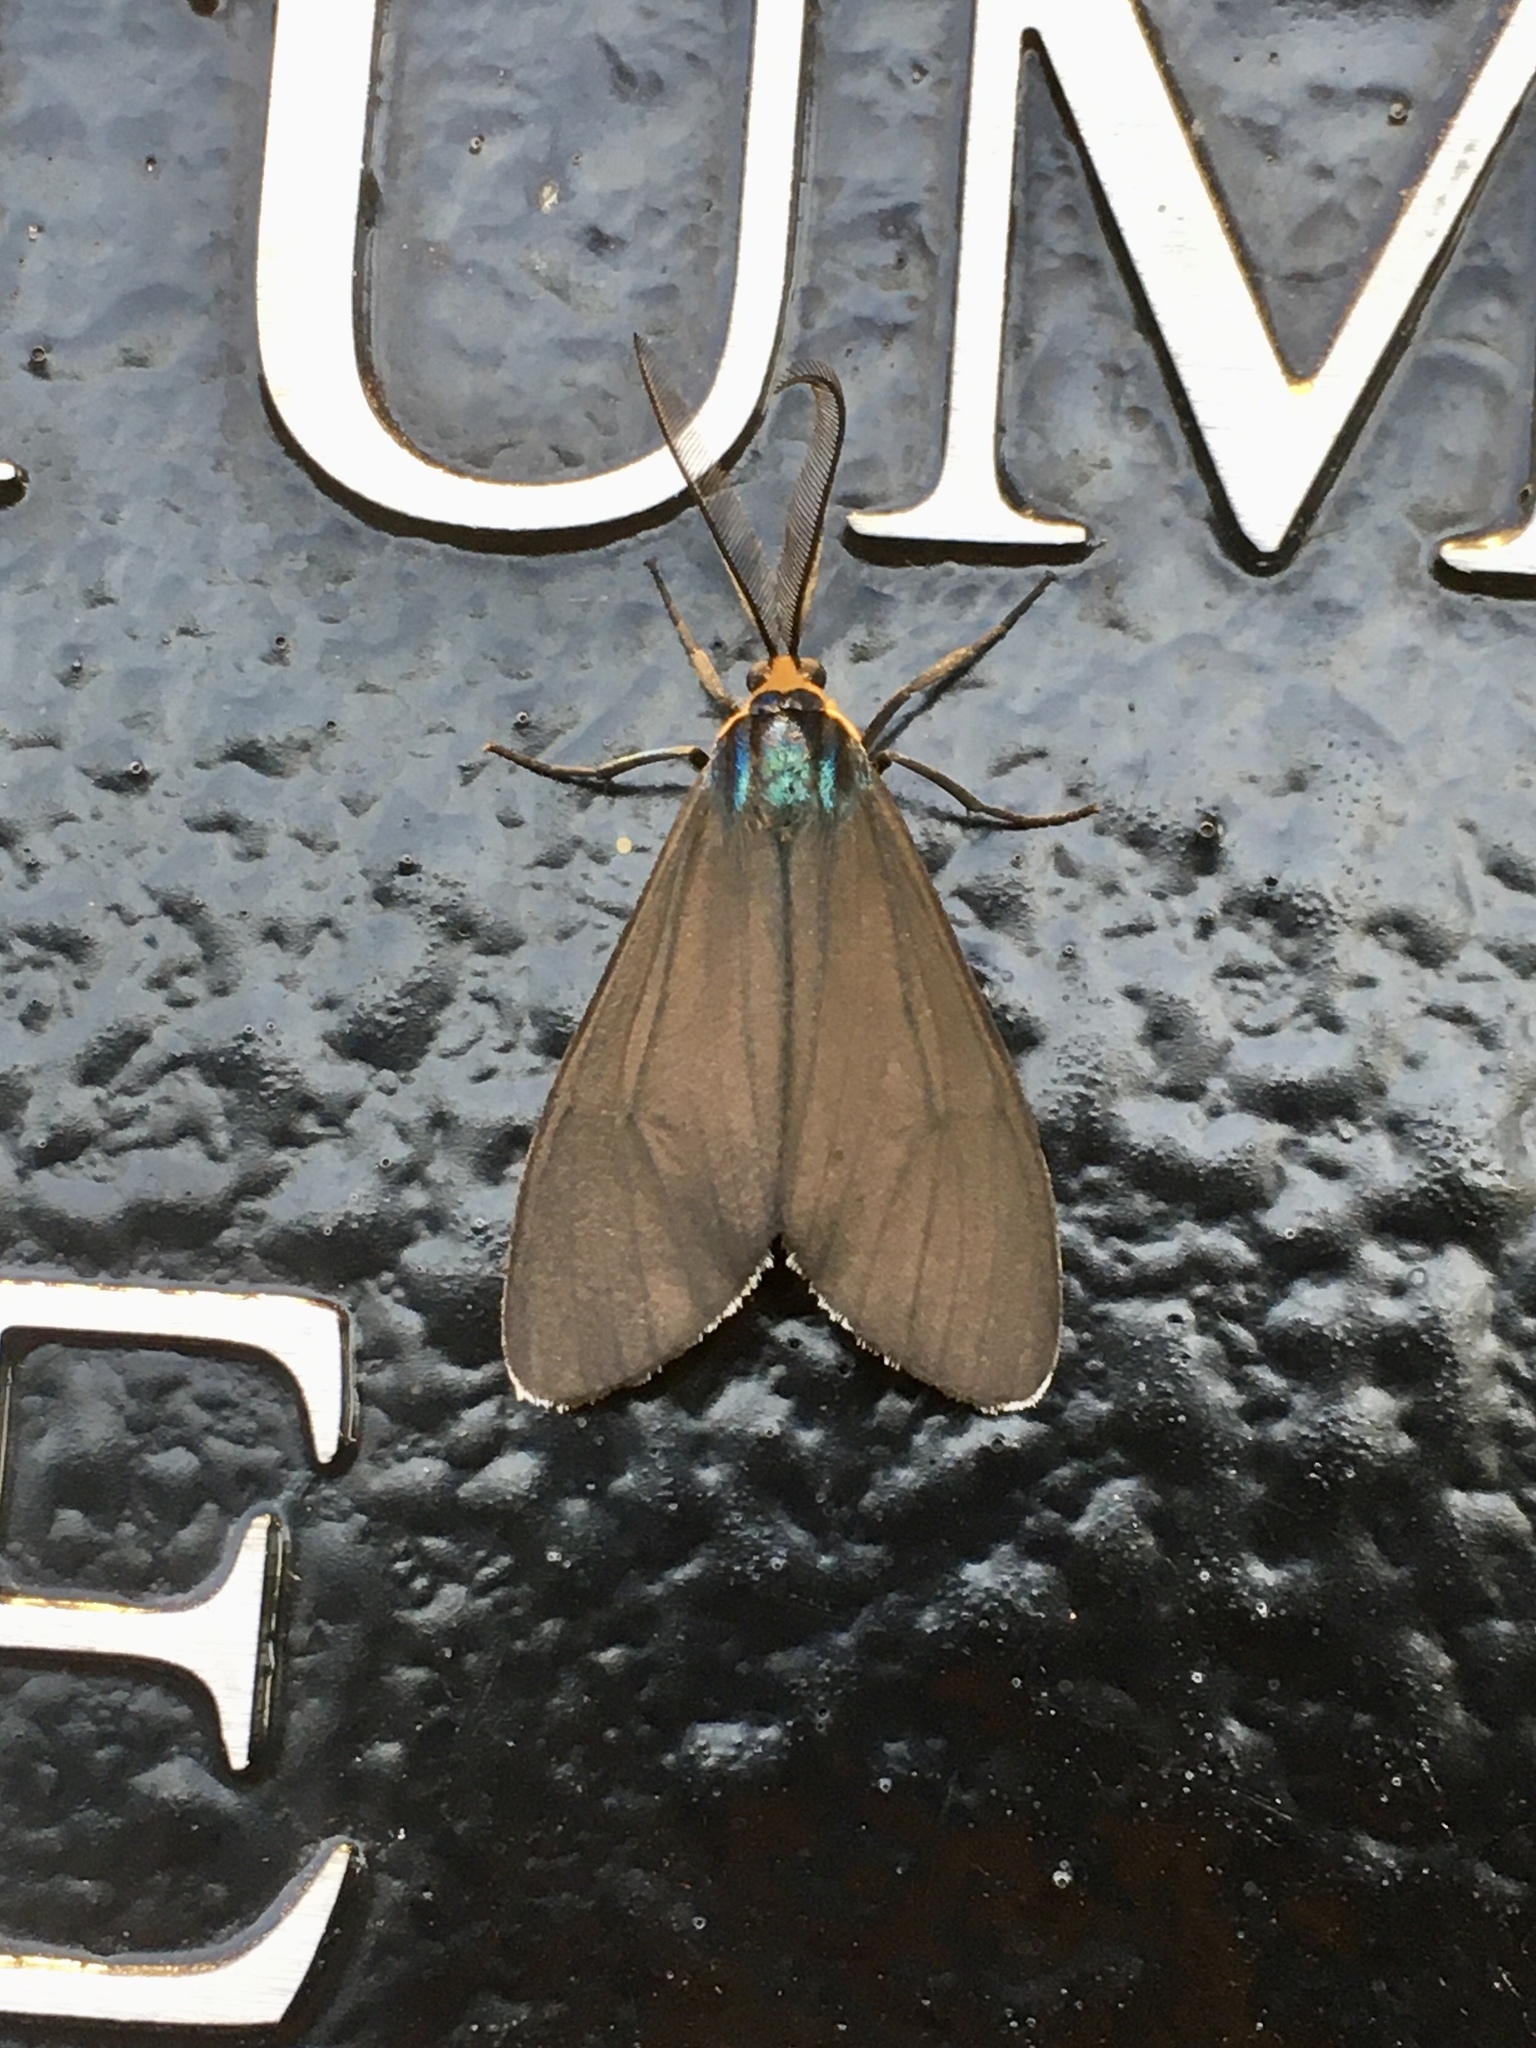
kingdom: Animalia
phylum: Arthropoda
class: Insecta
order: Lepidoptera
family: Erebidae
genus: Ctenucha
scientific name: Ctenucha virginica
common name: Virginia ctenucha moth
